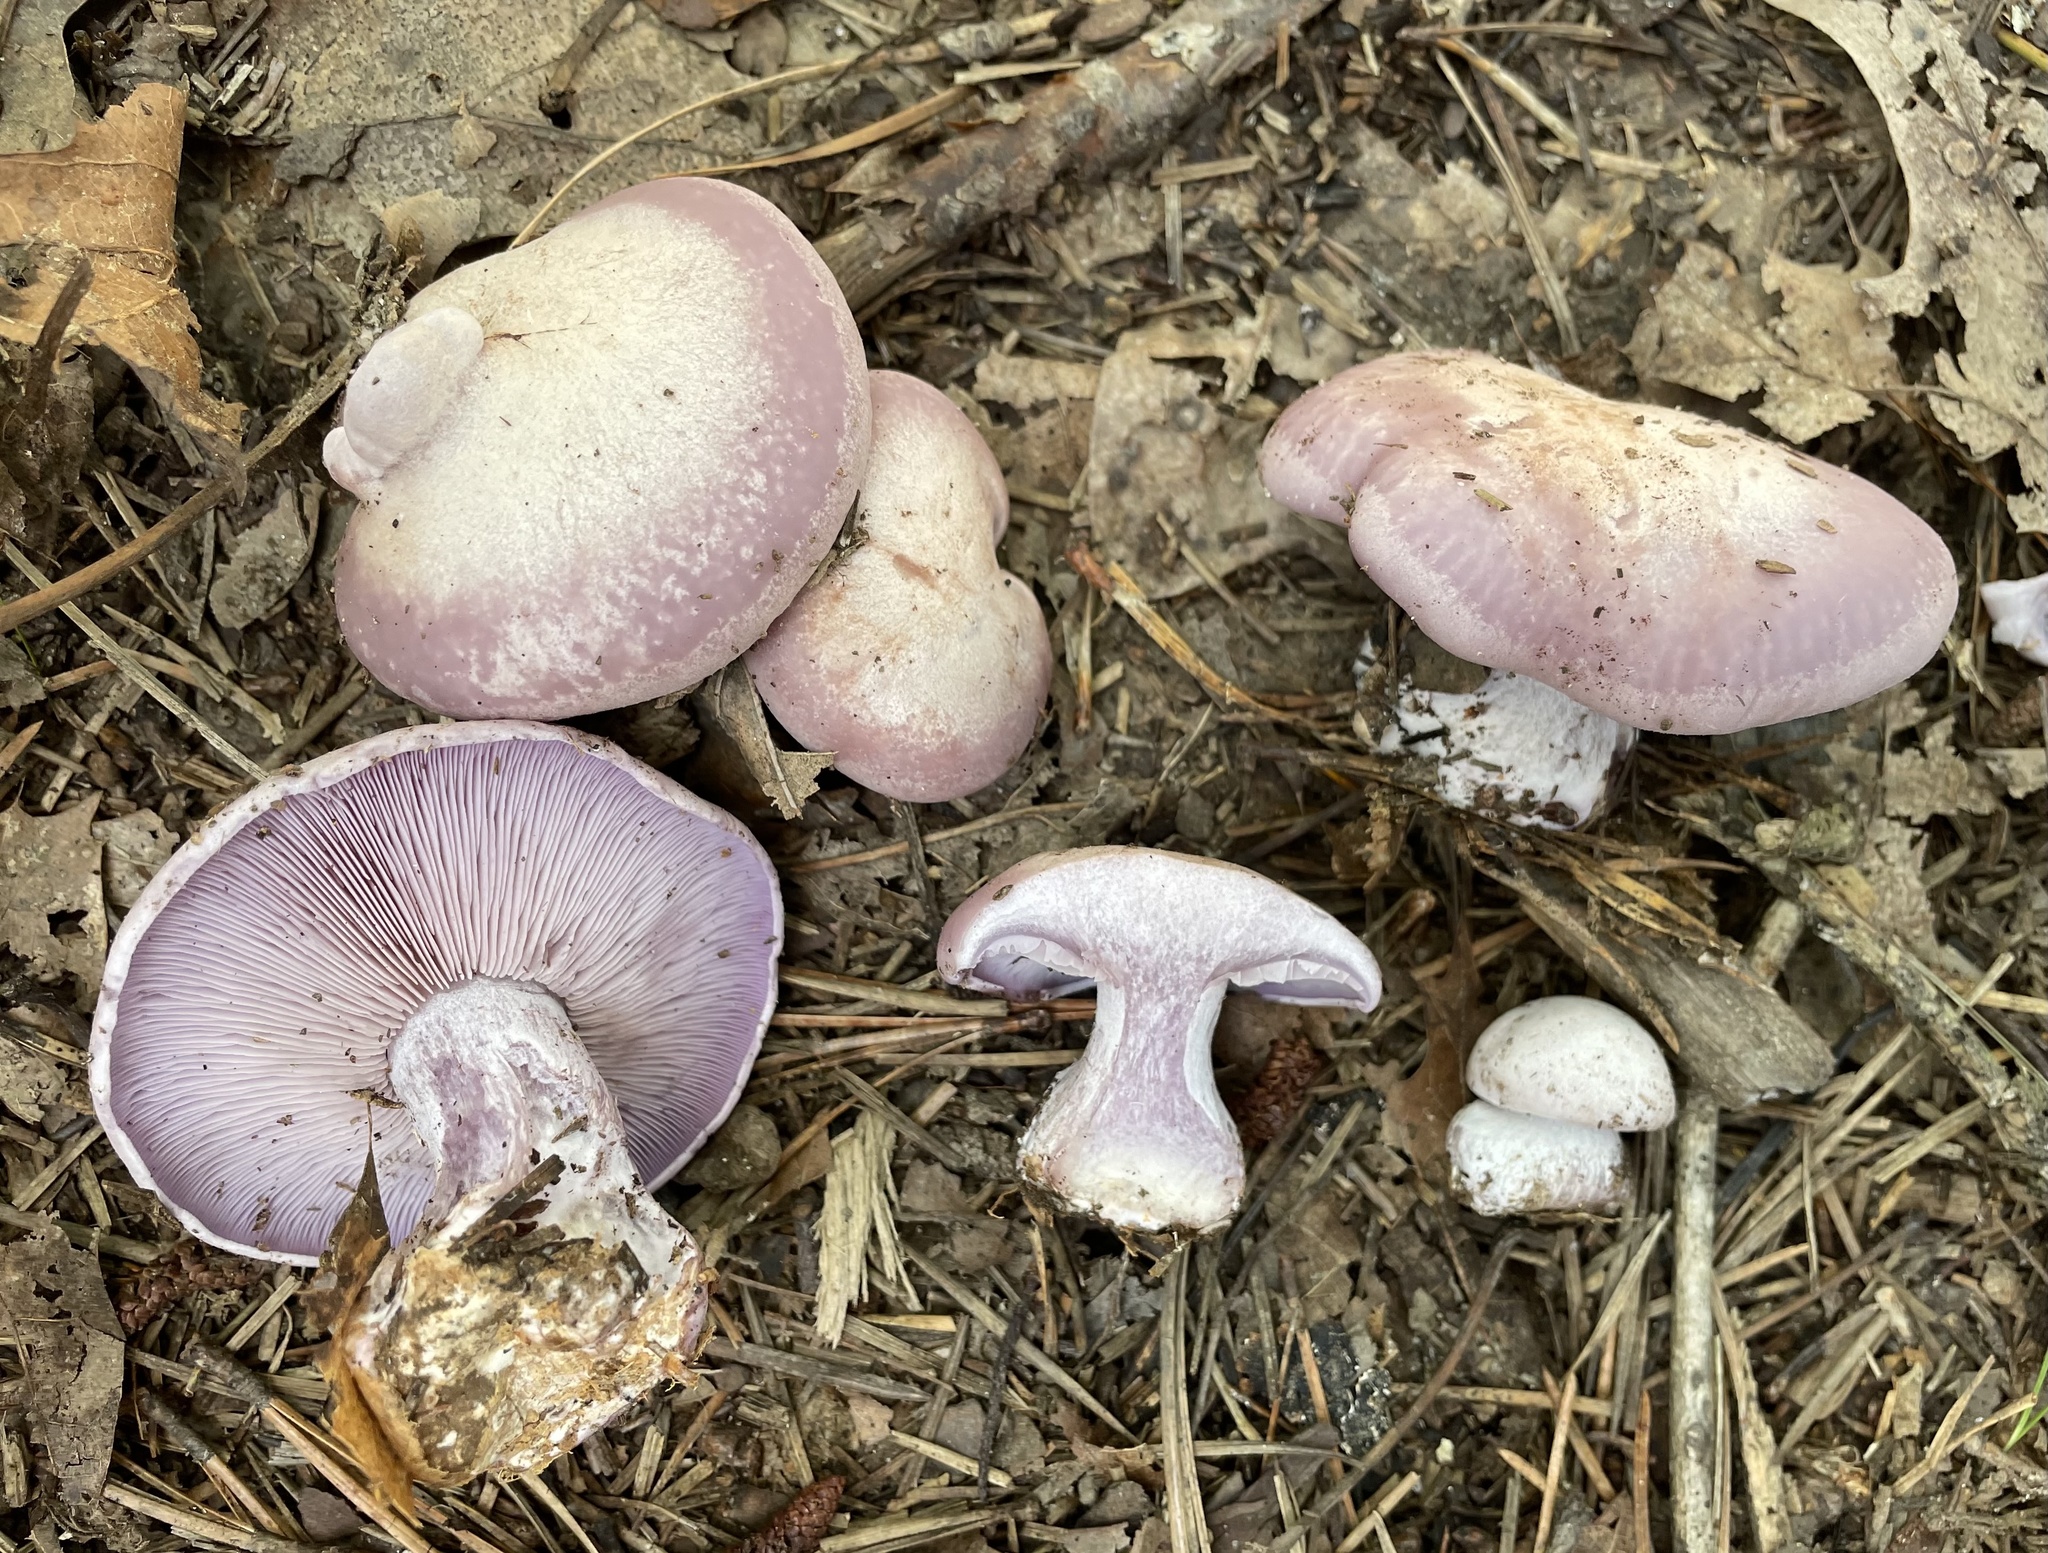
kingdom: Fungi
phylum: Basidiomycota
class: Agaricomycetes
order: Agaricales
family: Tricholomataceae
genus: Collybia
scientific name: Collybia
